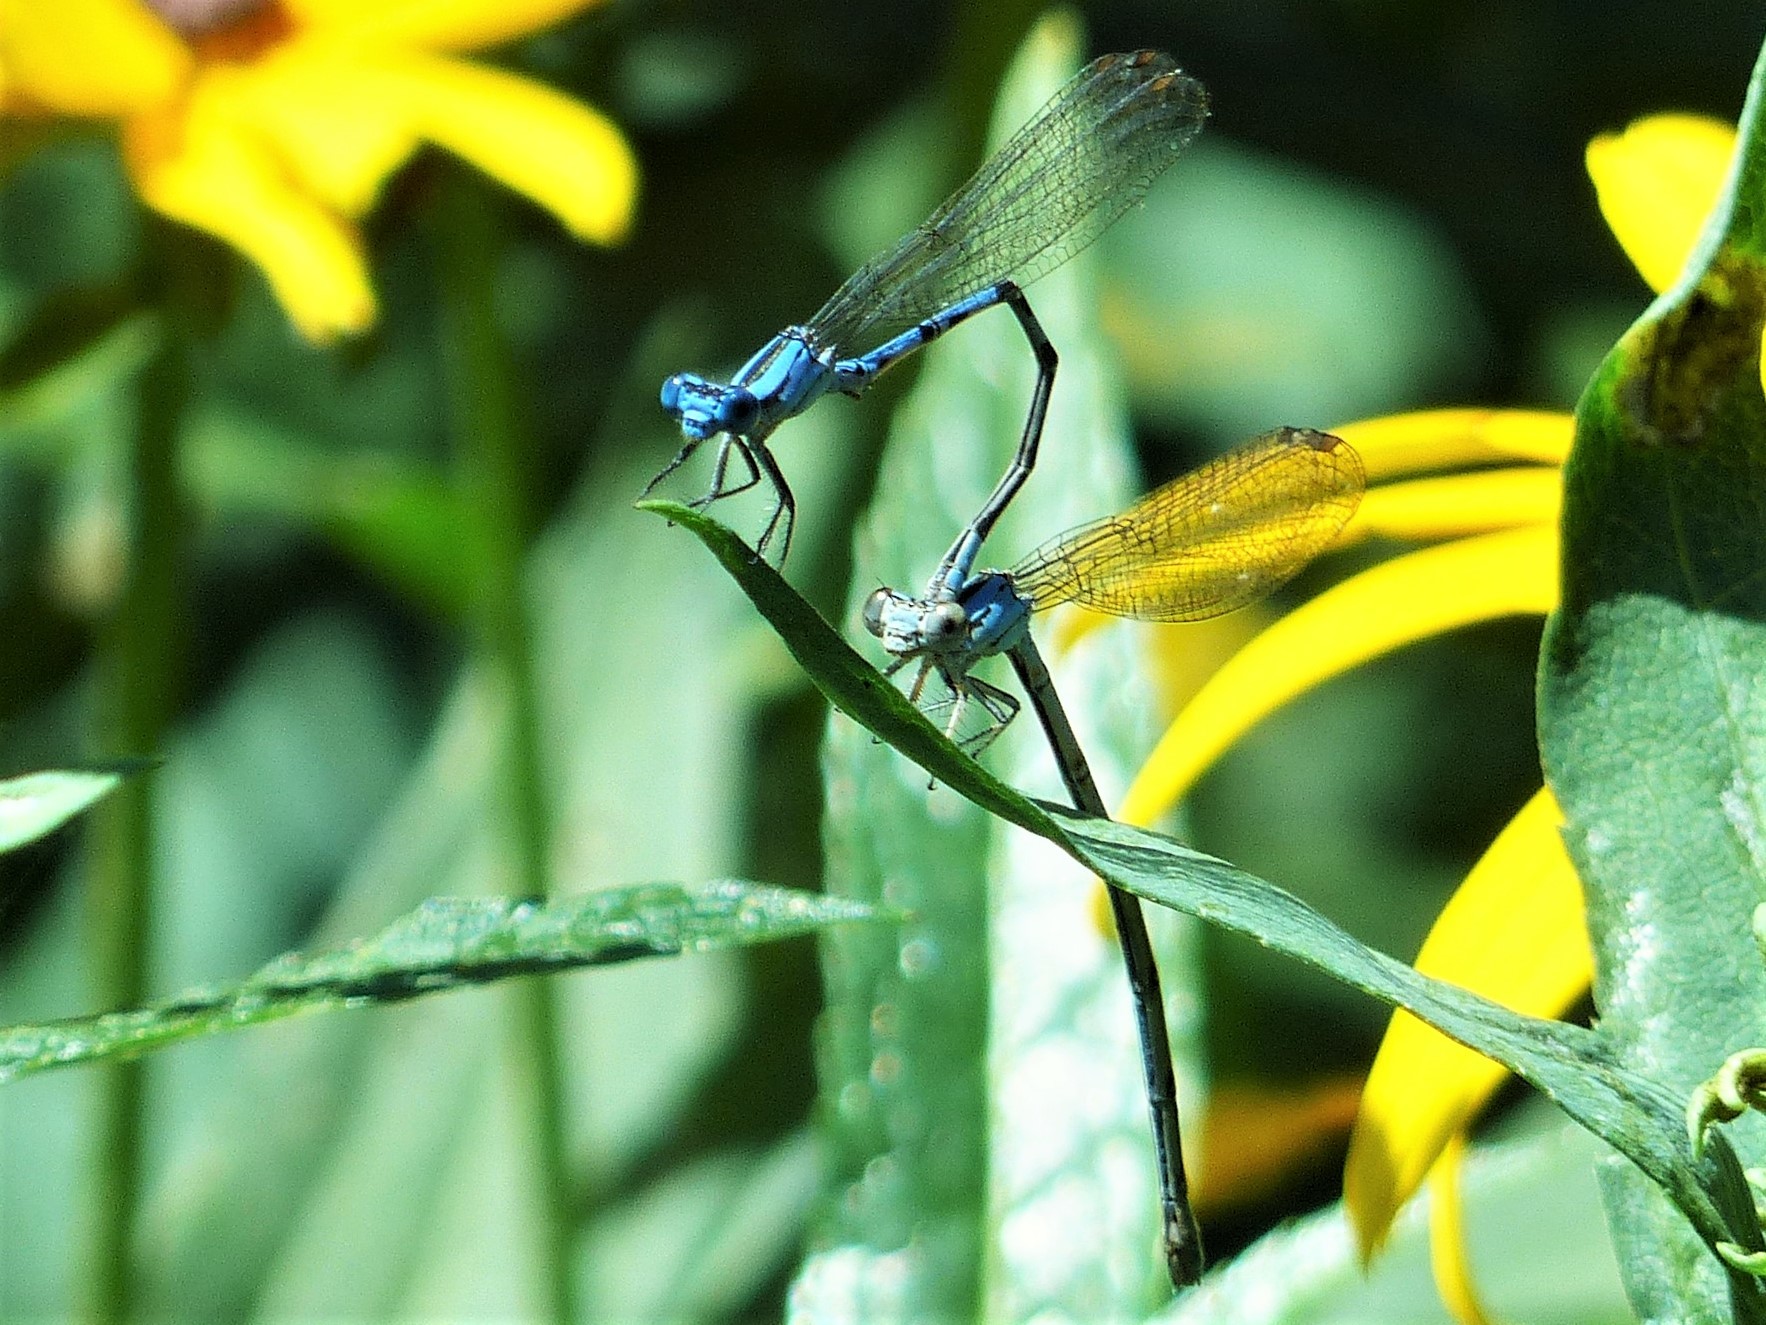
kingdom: Animalia
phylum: Arthropoda
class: Insecta
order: Odonata
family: Coenagrionidae
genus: Argia
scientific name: Argia funebris
